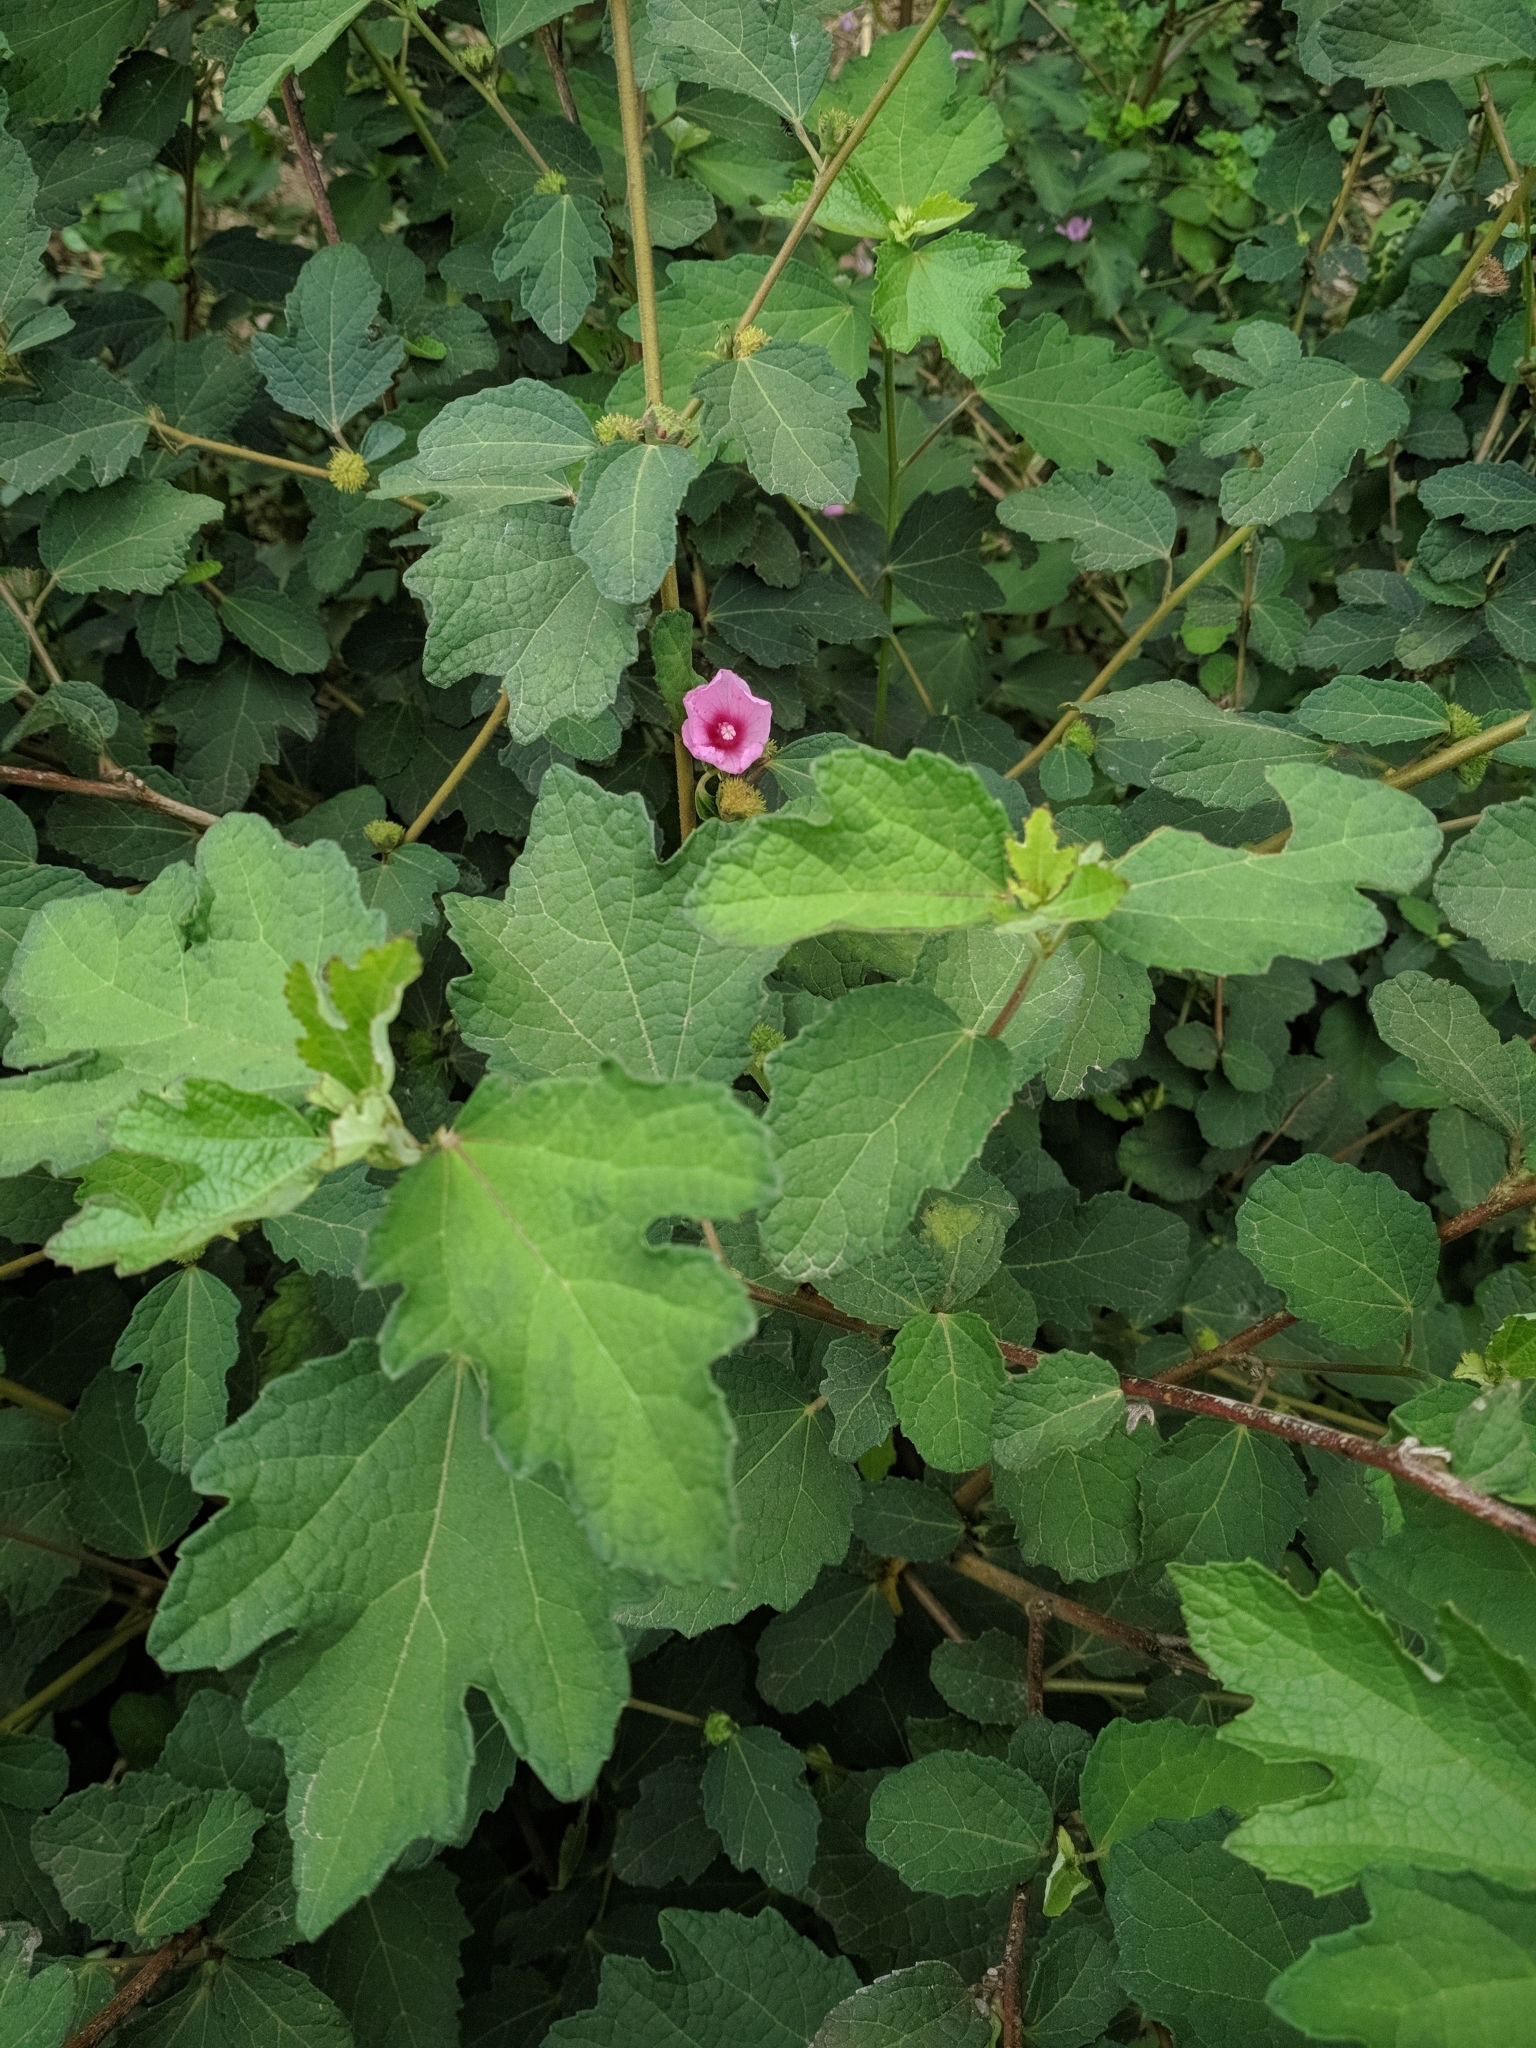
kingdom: Plantae
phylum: Tracheophyta
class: Magnoliopsida
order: Malvales
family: Malvaceae
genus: Urena
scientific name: Urena lobata
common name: Caesarweed
